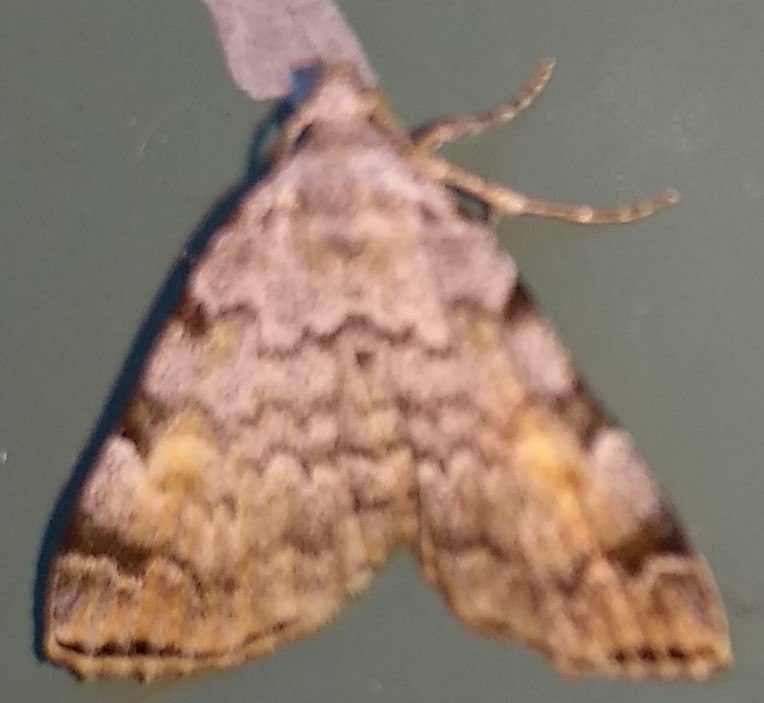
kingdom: Animalia
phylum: Arthropoda
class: Insecta
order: Lepidoptera
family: Erebidae
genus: Idia
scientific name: Idia americalis
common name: American idia moth
